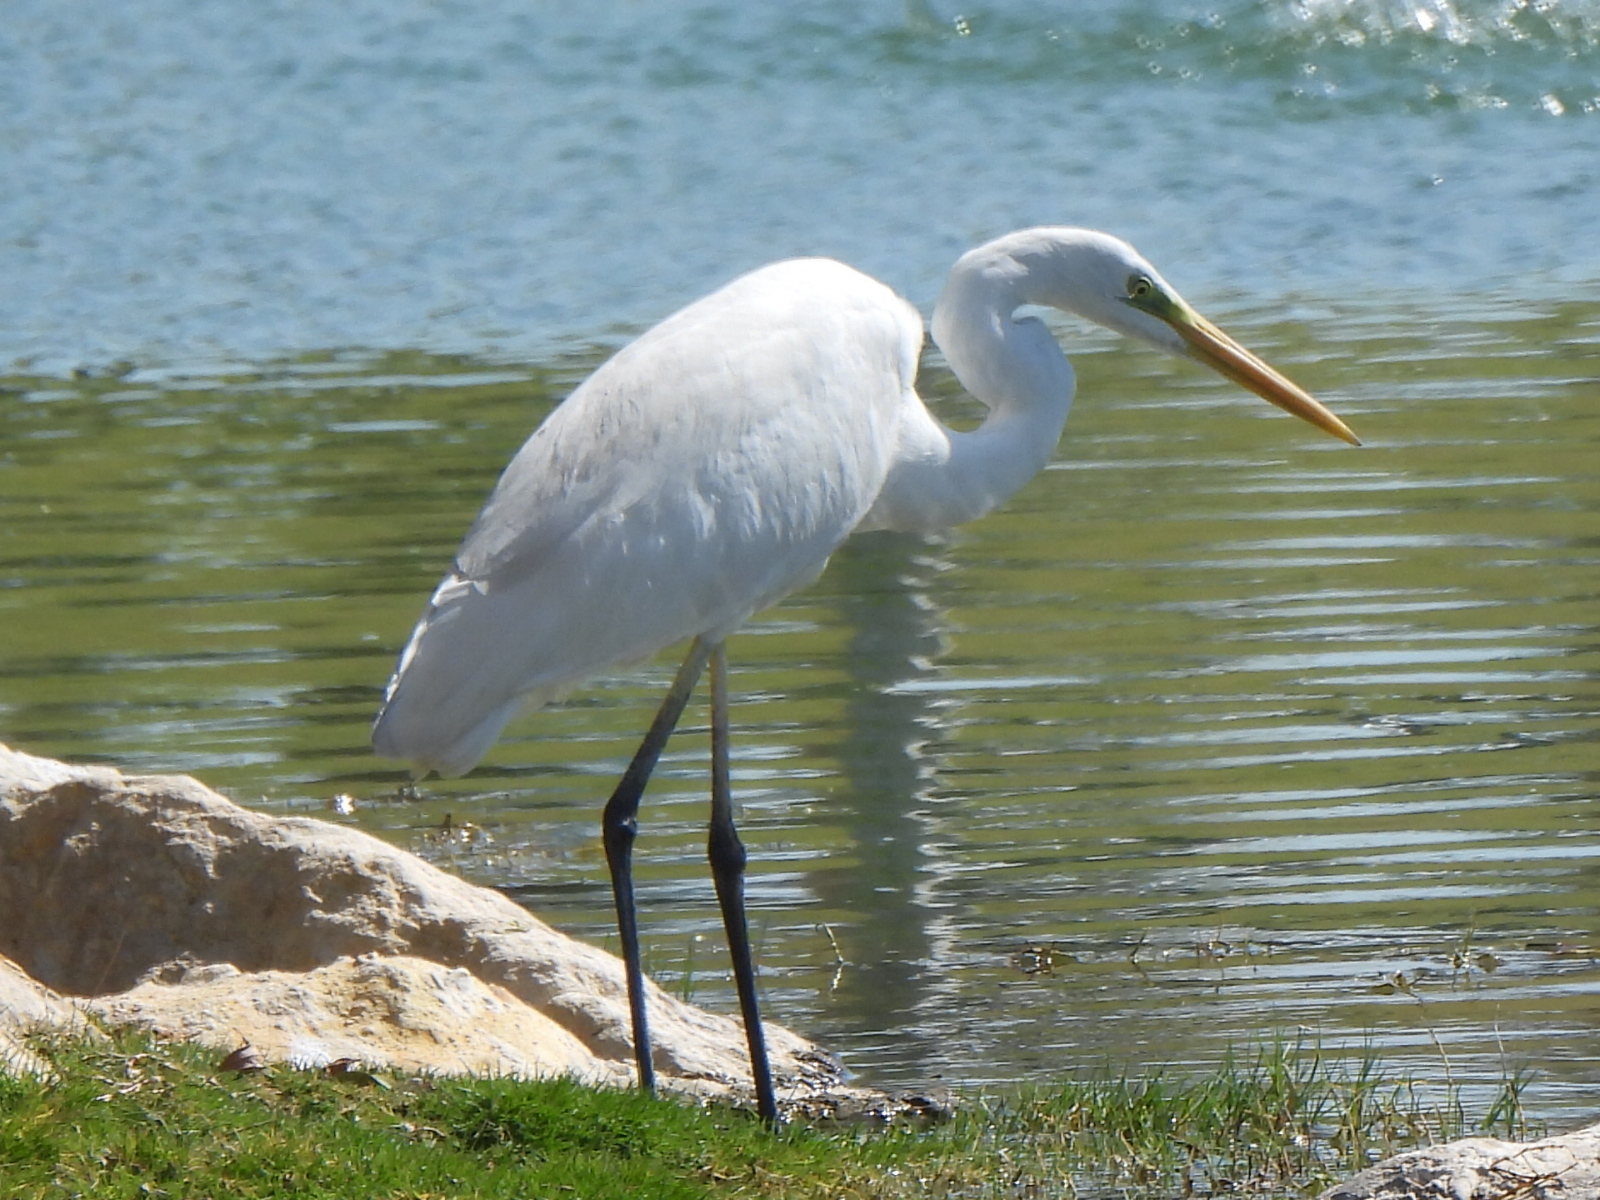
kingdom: Animalia
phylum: Chordata
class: Aves
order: Pelecaniformes
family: Ardeidae
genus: Ardea
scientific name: Ardea alba
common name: Great egret
